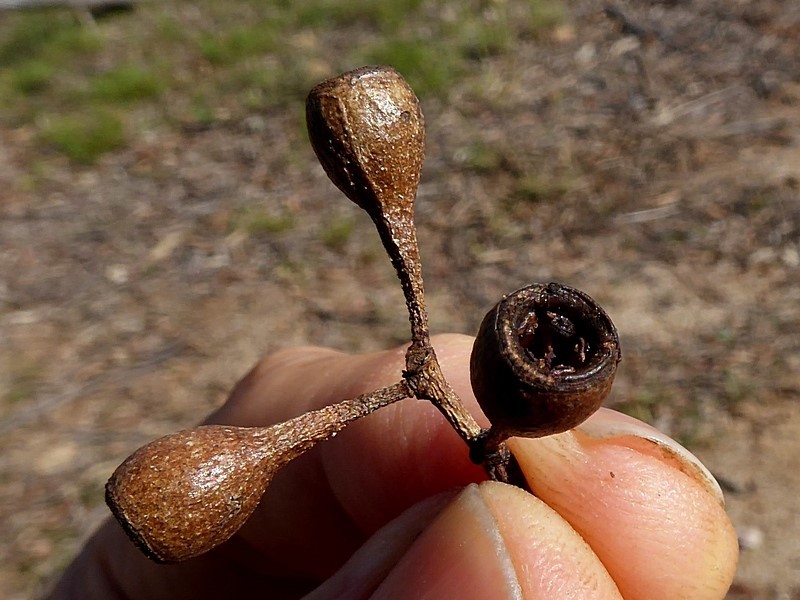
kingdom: Plantae
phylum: Tracheophyta
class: Magnoliopsida
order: Myrtales
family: Myrtaceae
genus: Eucalyptus
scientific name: Eucalyptus bosistoana
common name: Bosisto's-box
